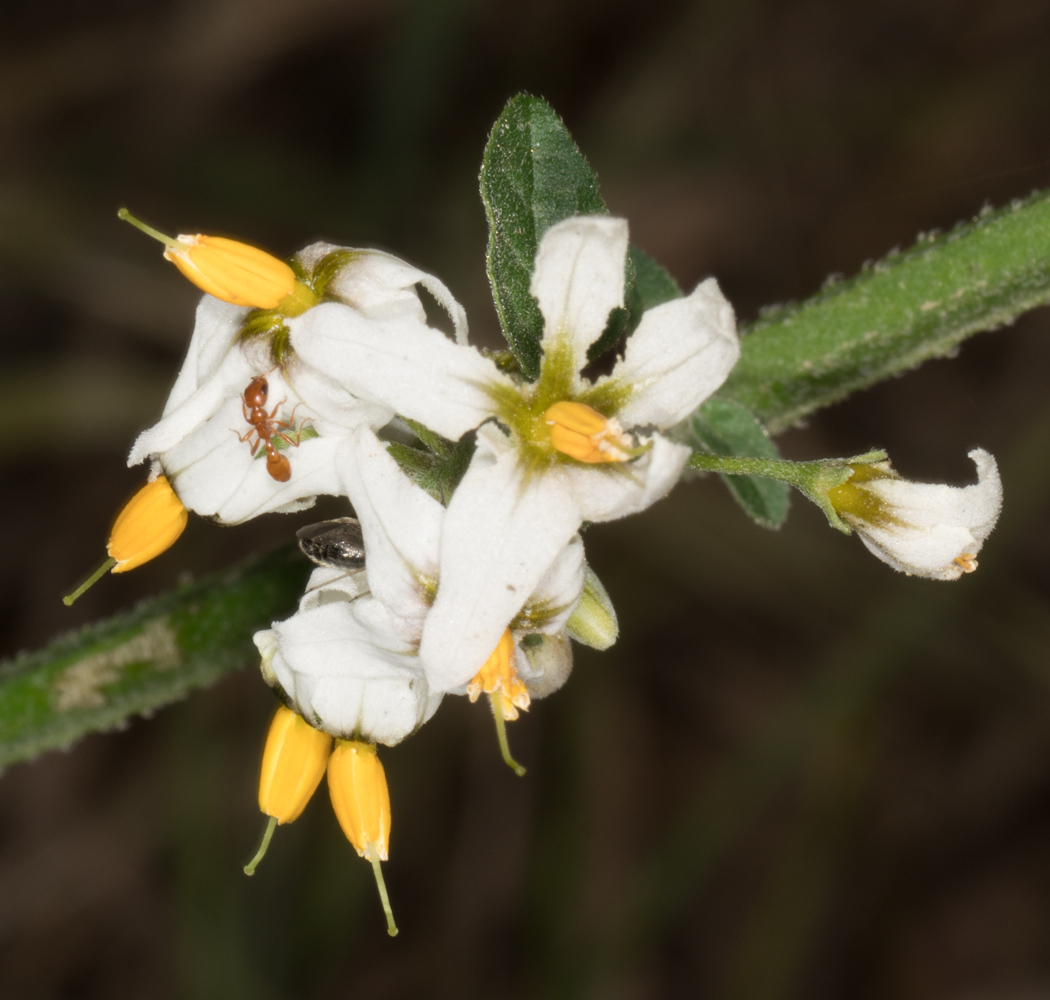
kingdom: Plantae
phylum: Tracheophyta
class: Magnoliopsida
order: Solanales
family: Solanaceae
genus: Solanum
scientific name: Solanum douglasii
